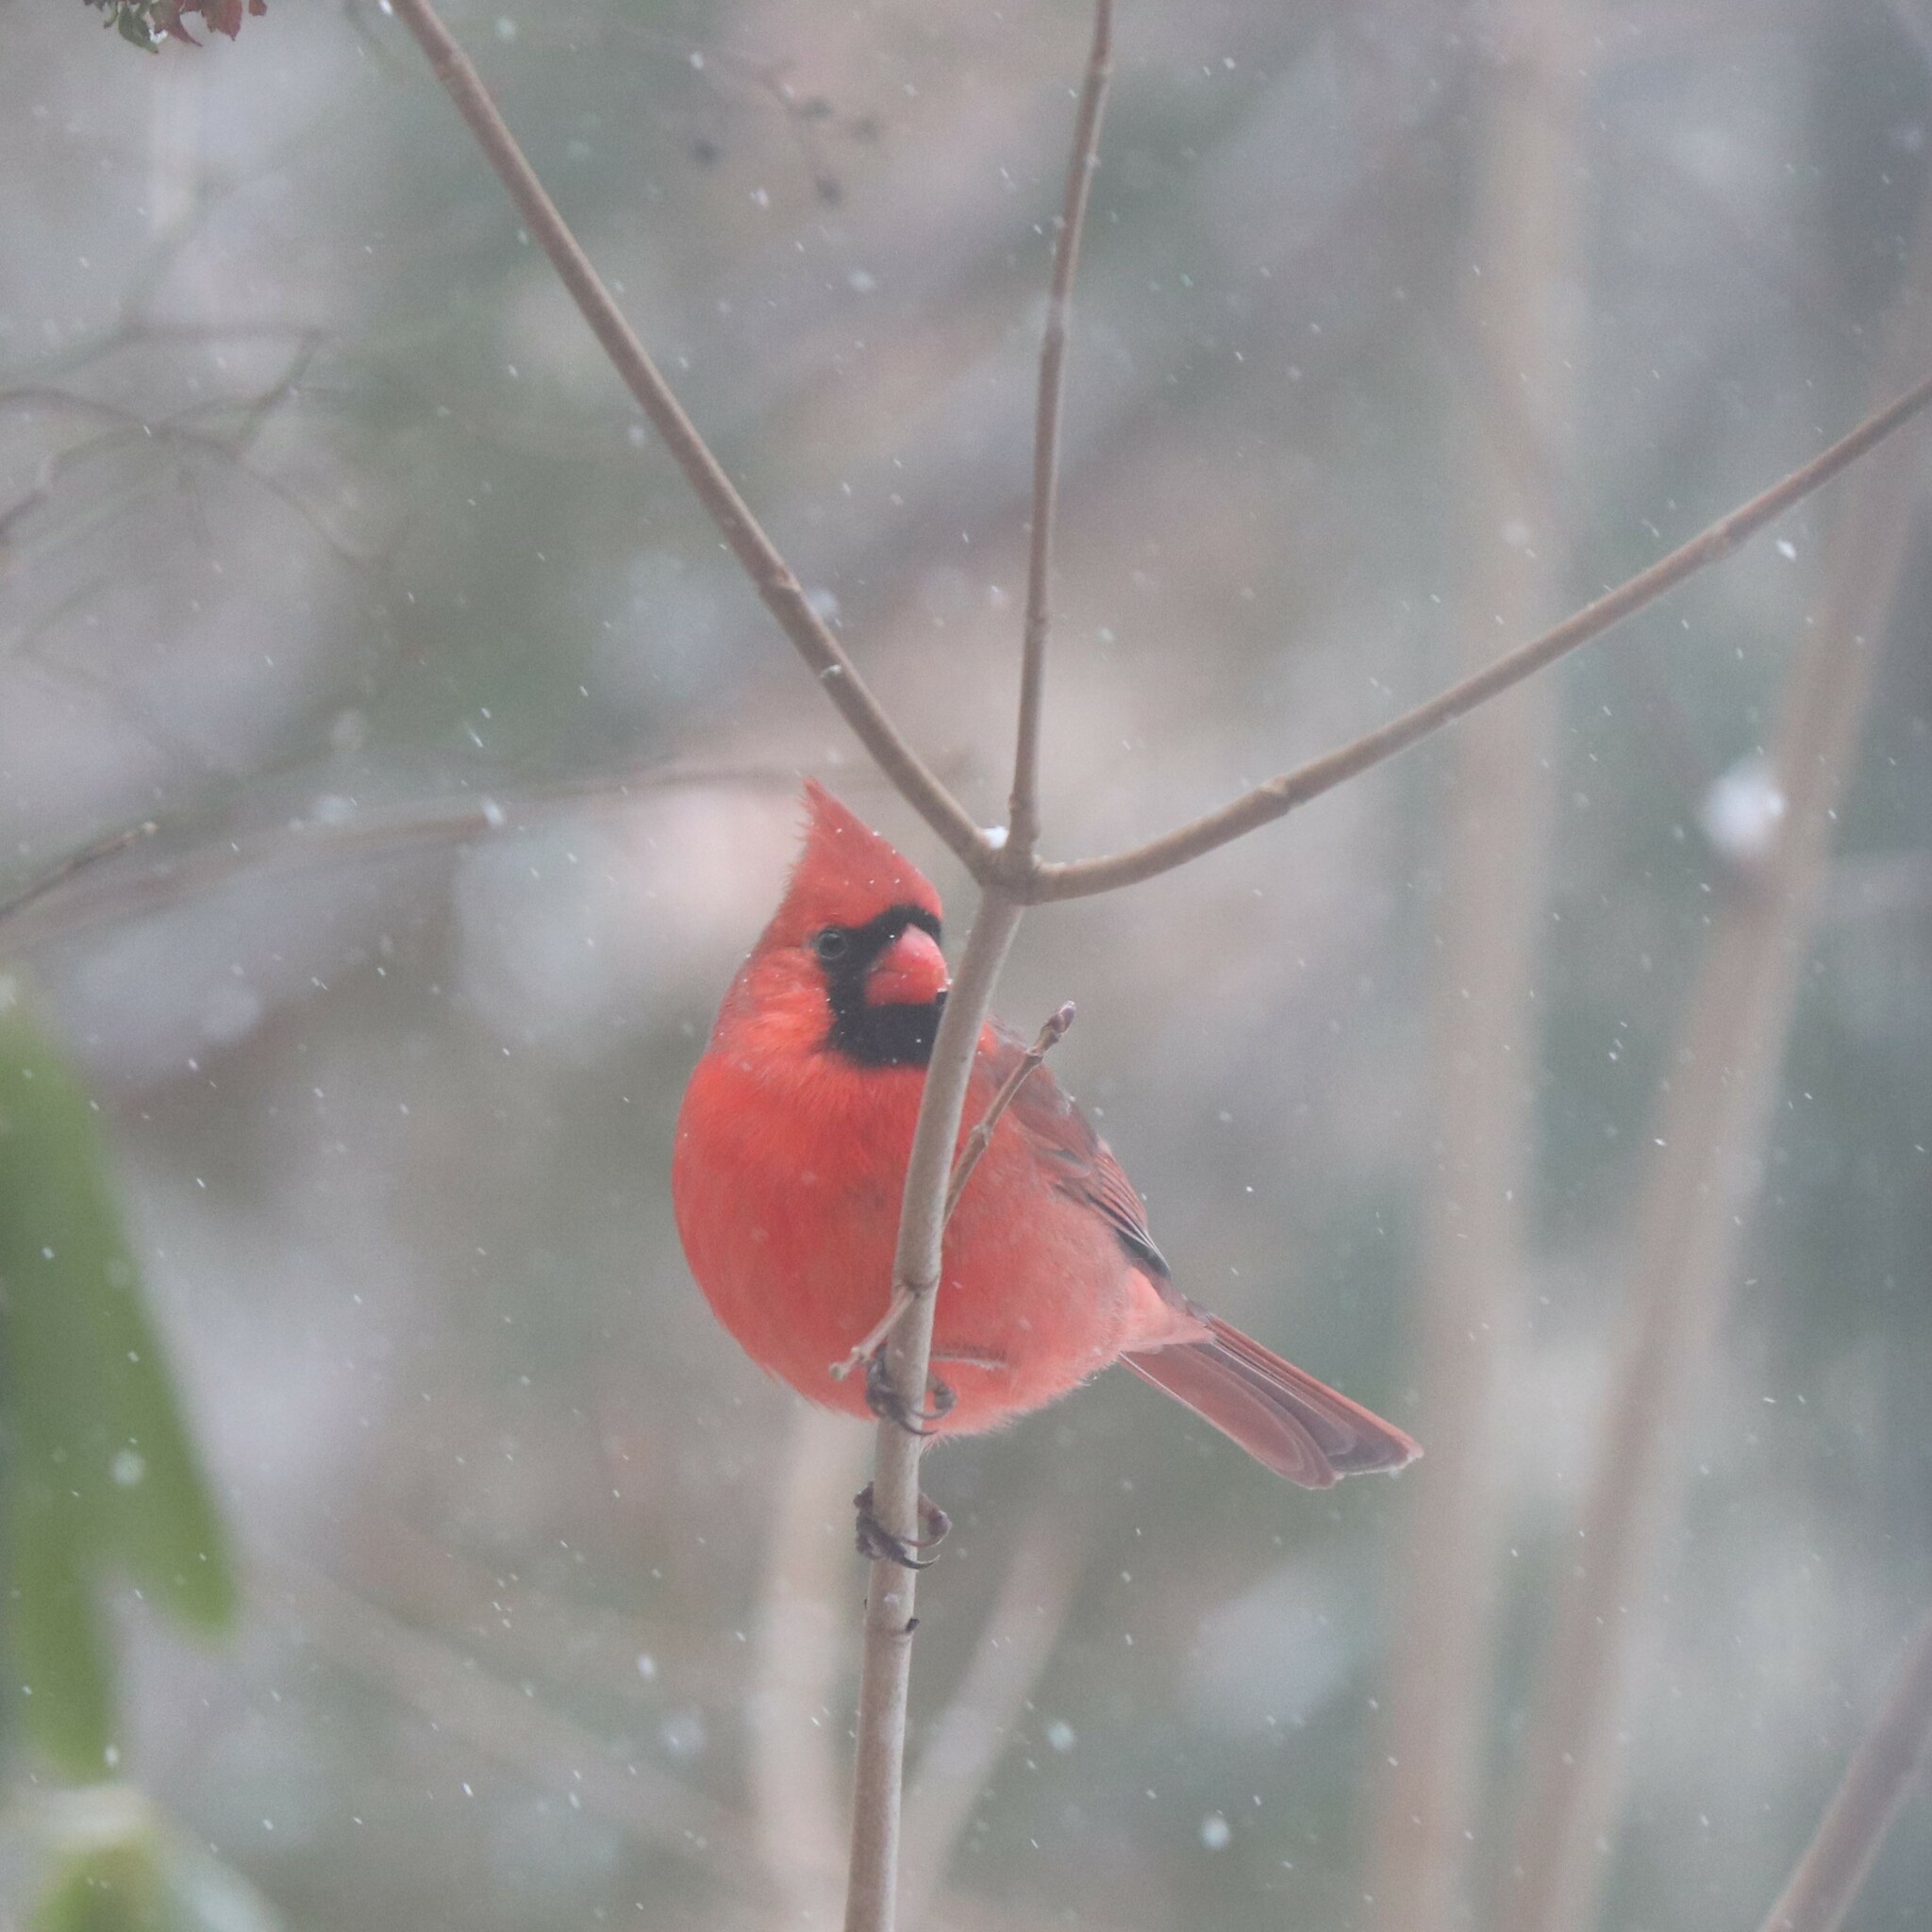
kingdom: Animalia
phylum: Chordata
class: Aves
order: Passeriformes
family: Cardinalidae
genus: Cardinalis
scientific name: Cardinalis cardinalis
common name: Northern cardinal
